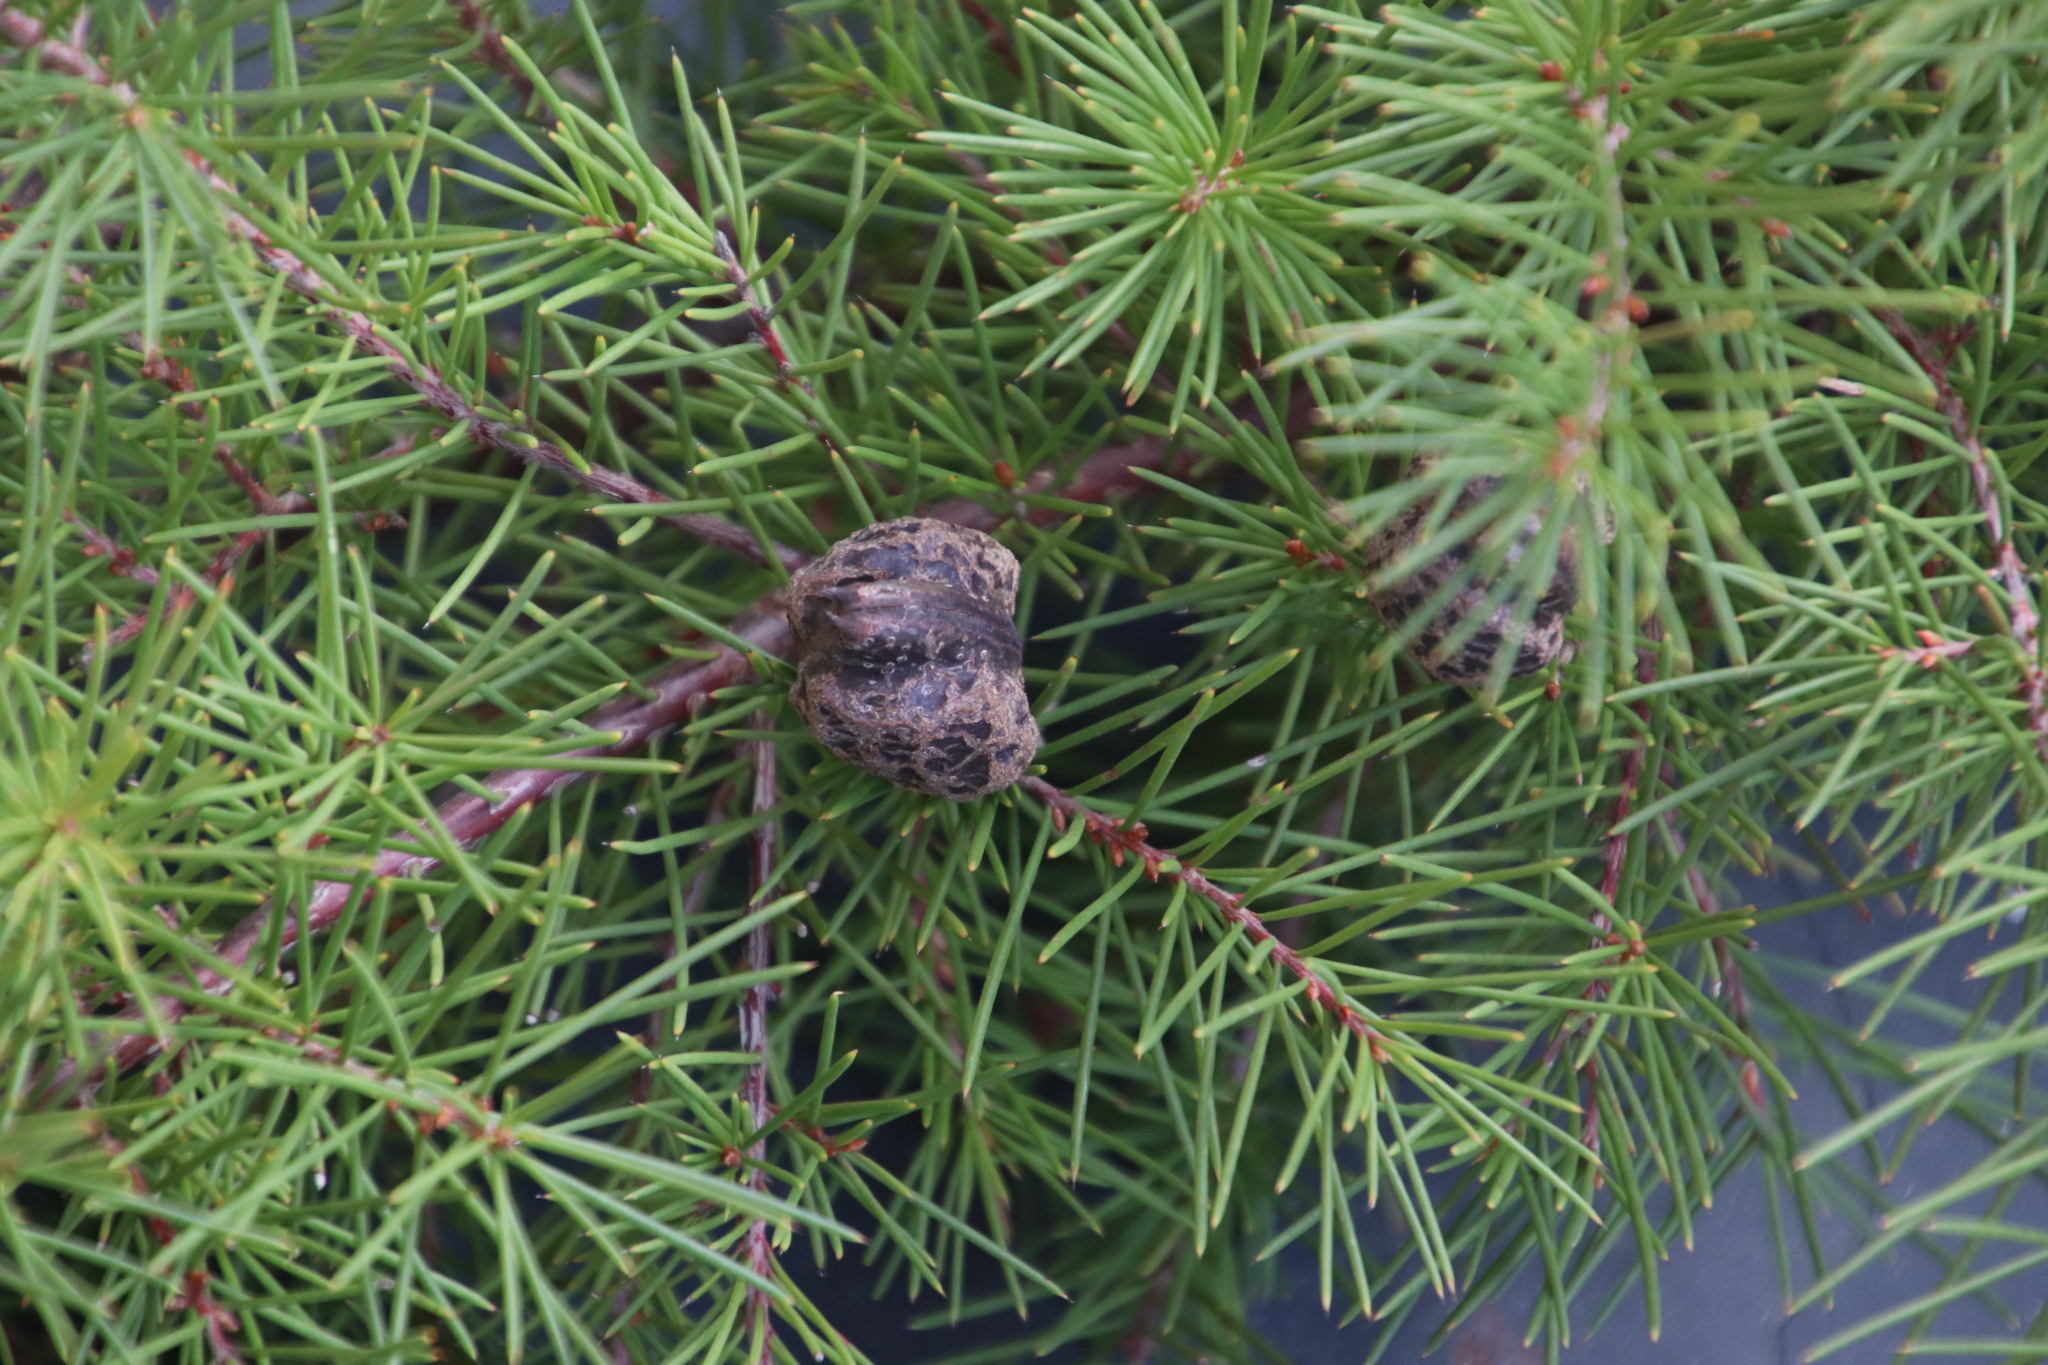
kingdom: Plantae
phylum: Tracheophyta
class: Magnoliopsida
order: Proteales
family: Proteaceae
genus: Hakea
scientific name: Hakea sericea
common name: Needle bush
